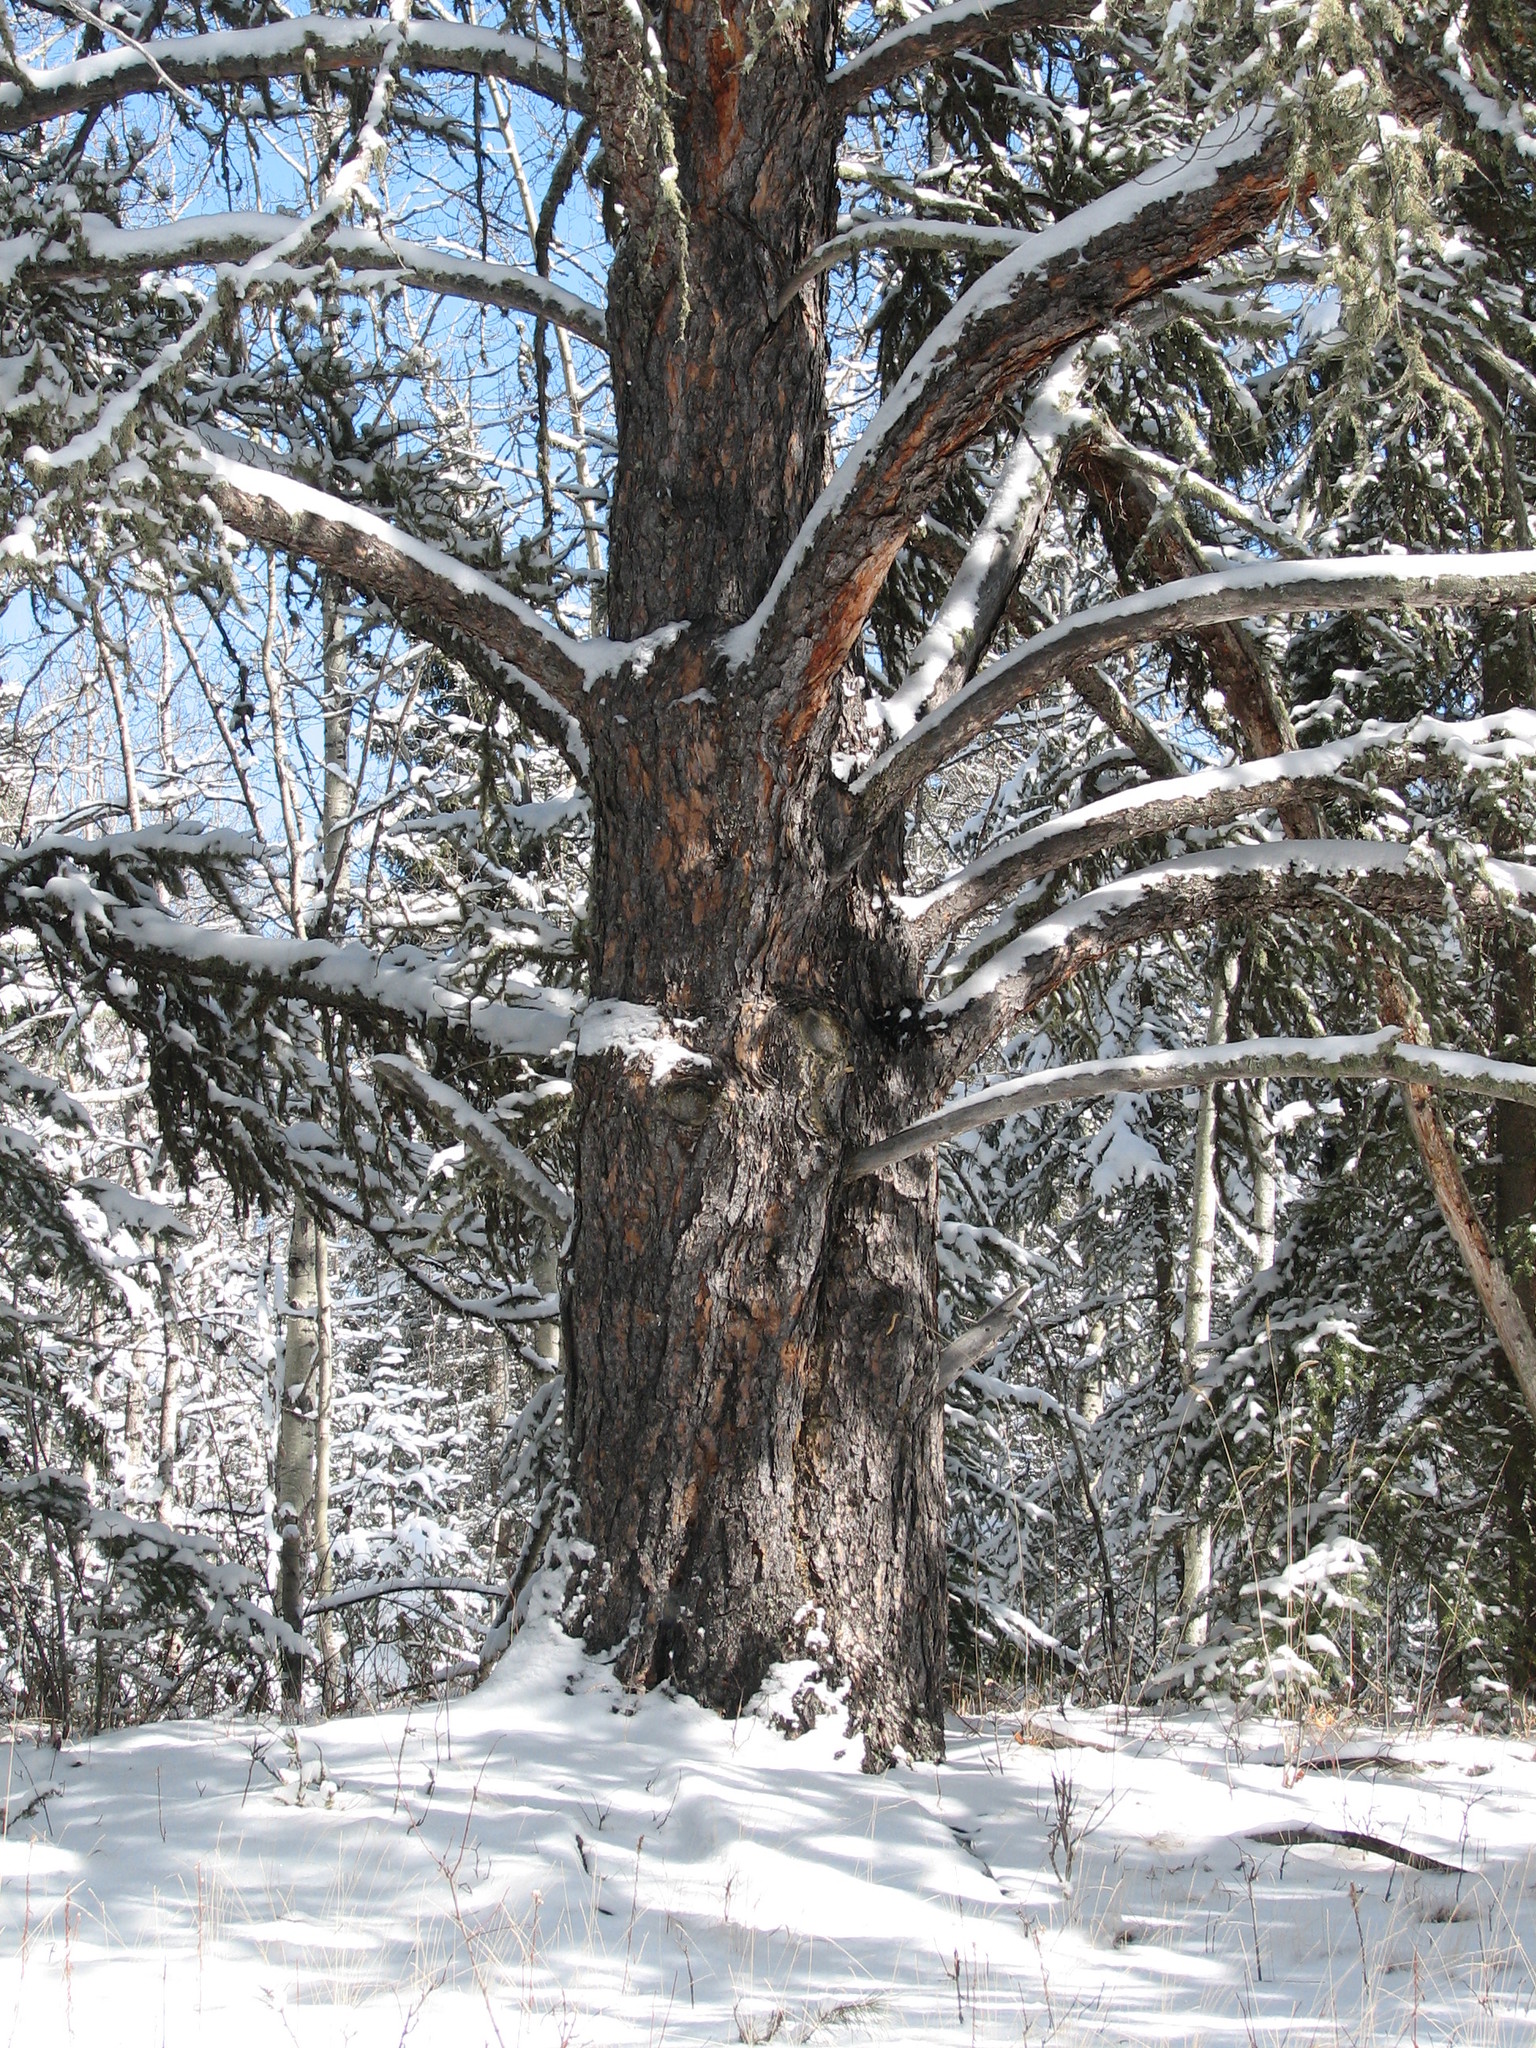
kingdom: Plantae
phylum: Tracheophyta
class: Pinopsida
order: Pinales
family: Pinaceae
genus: Pinus
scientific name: Pinus banksiana
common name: Jack pine
